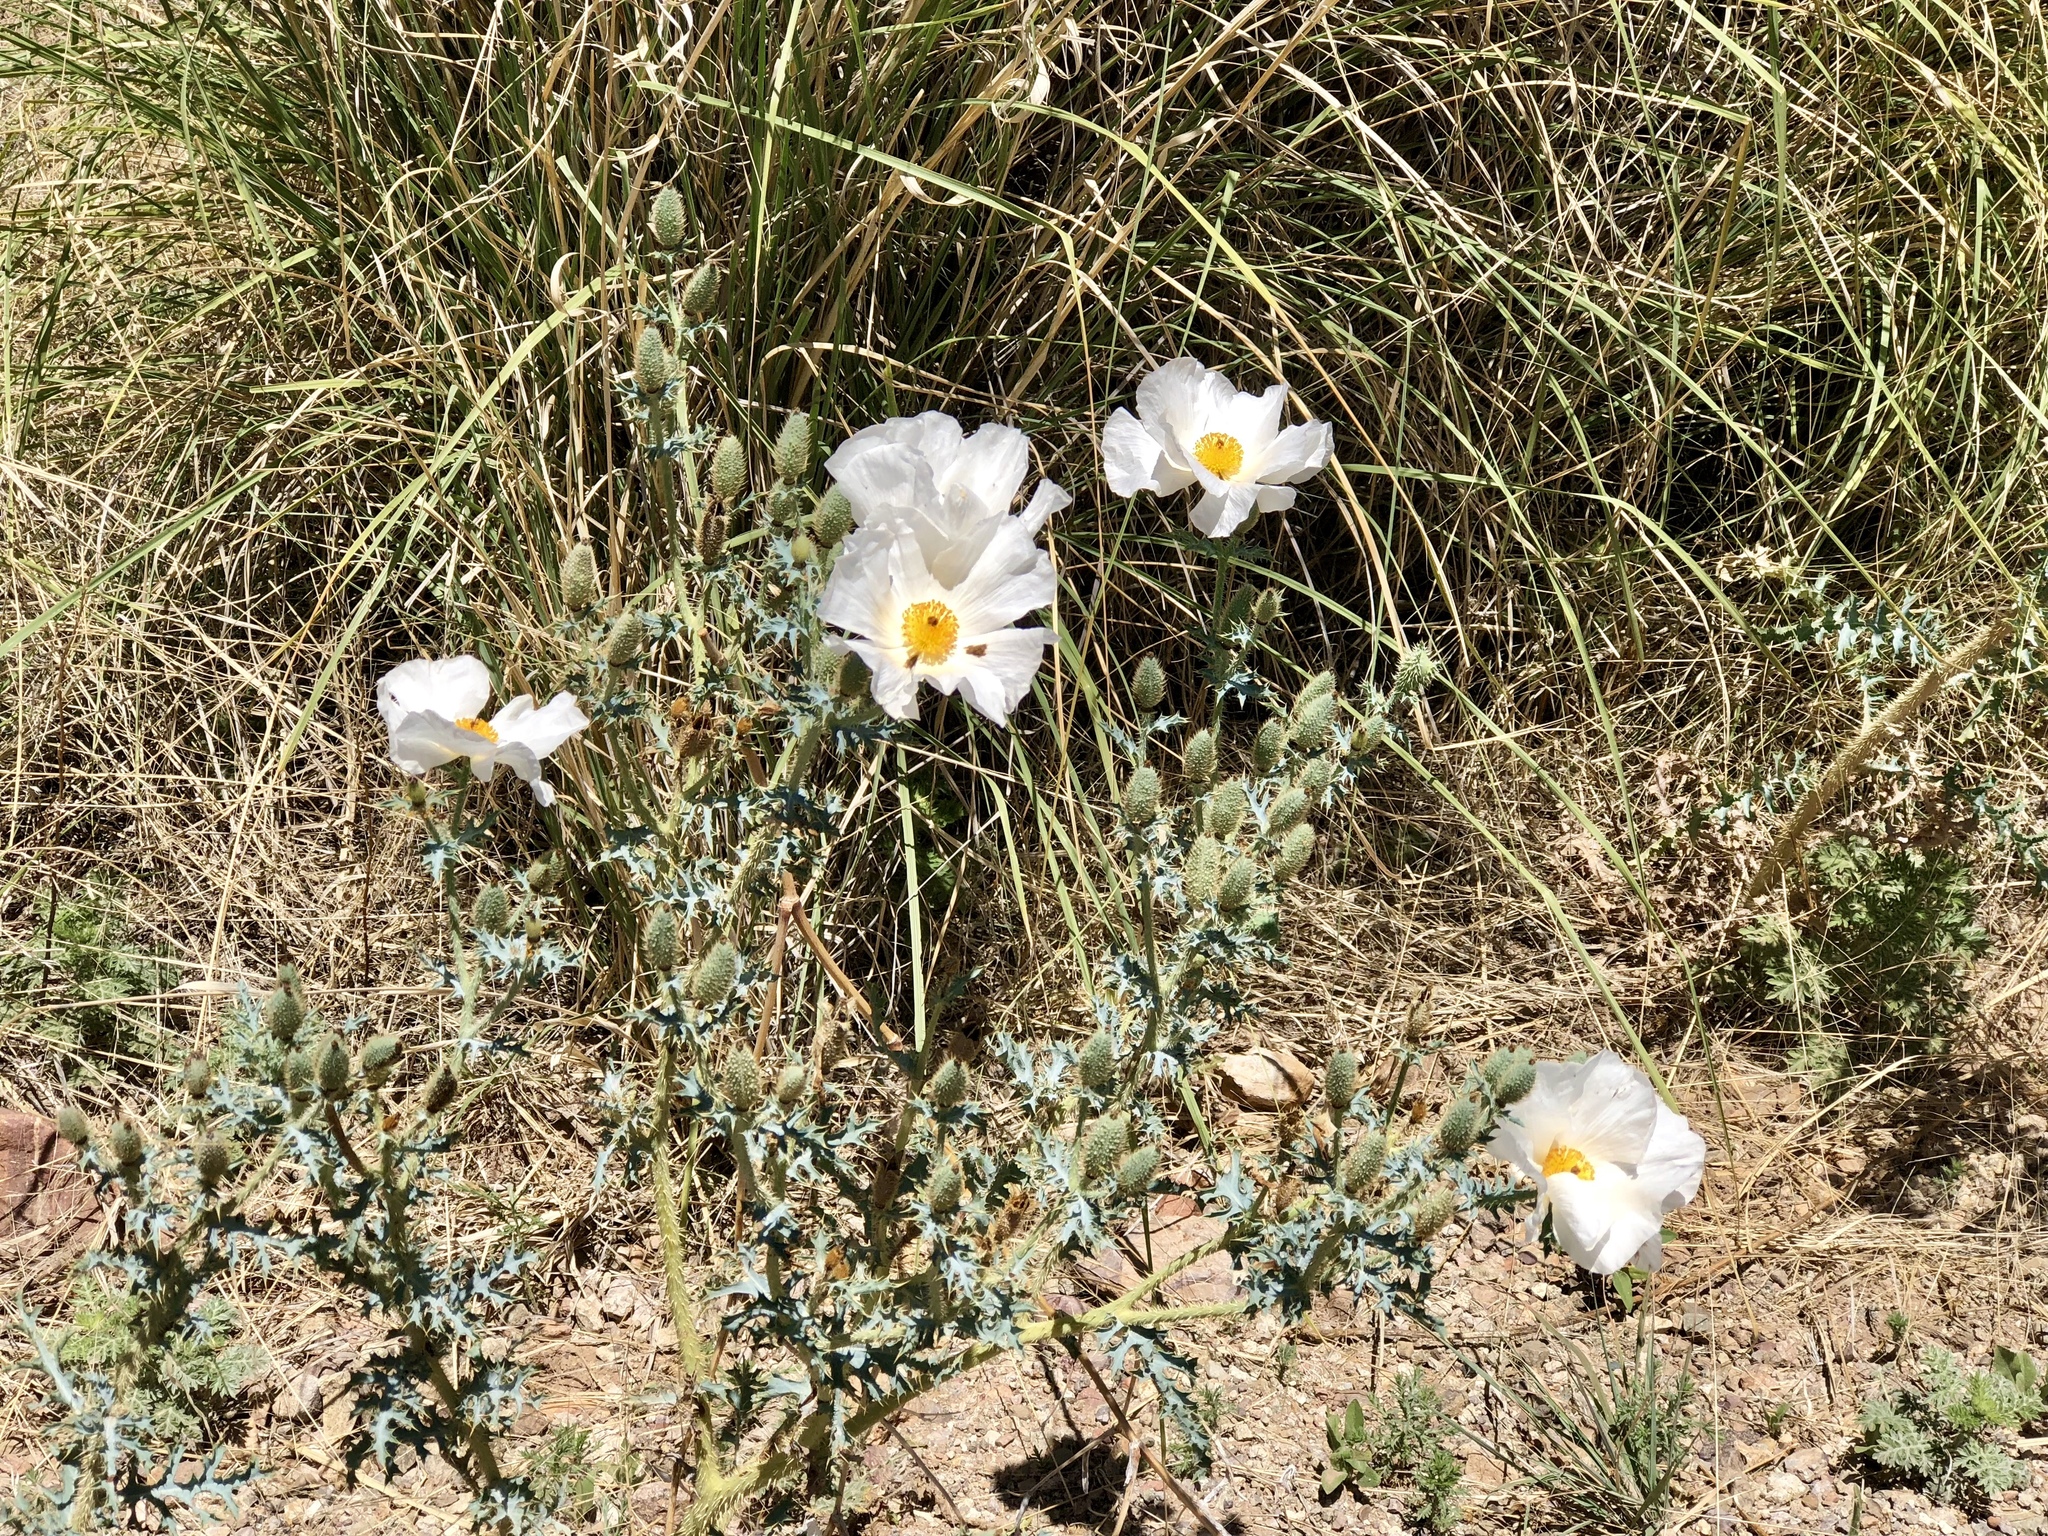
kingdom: Plantae
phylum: Tracheophyta
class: Magnoliopsida
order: Ranunculales
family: Papaveraceae
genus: Argemone
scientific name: Argemone pleiacantha
